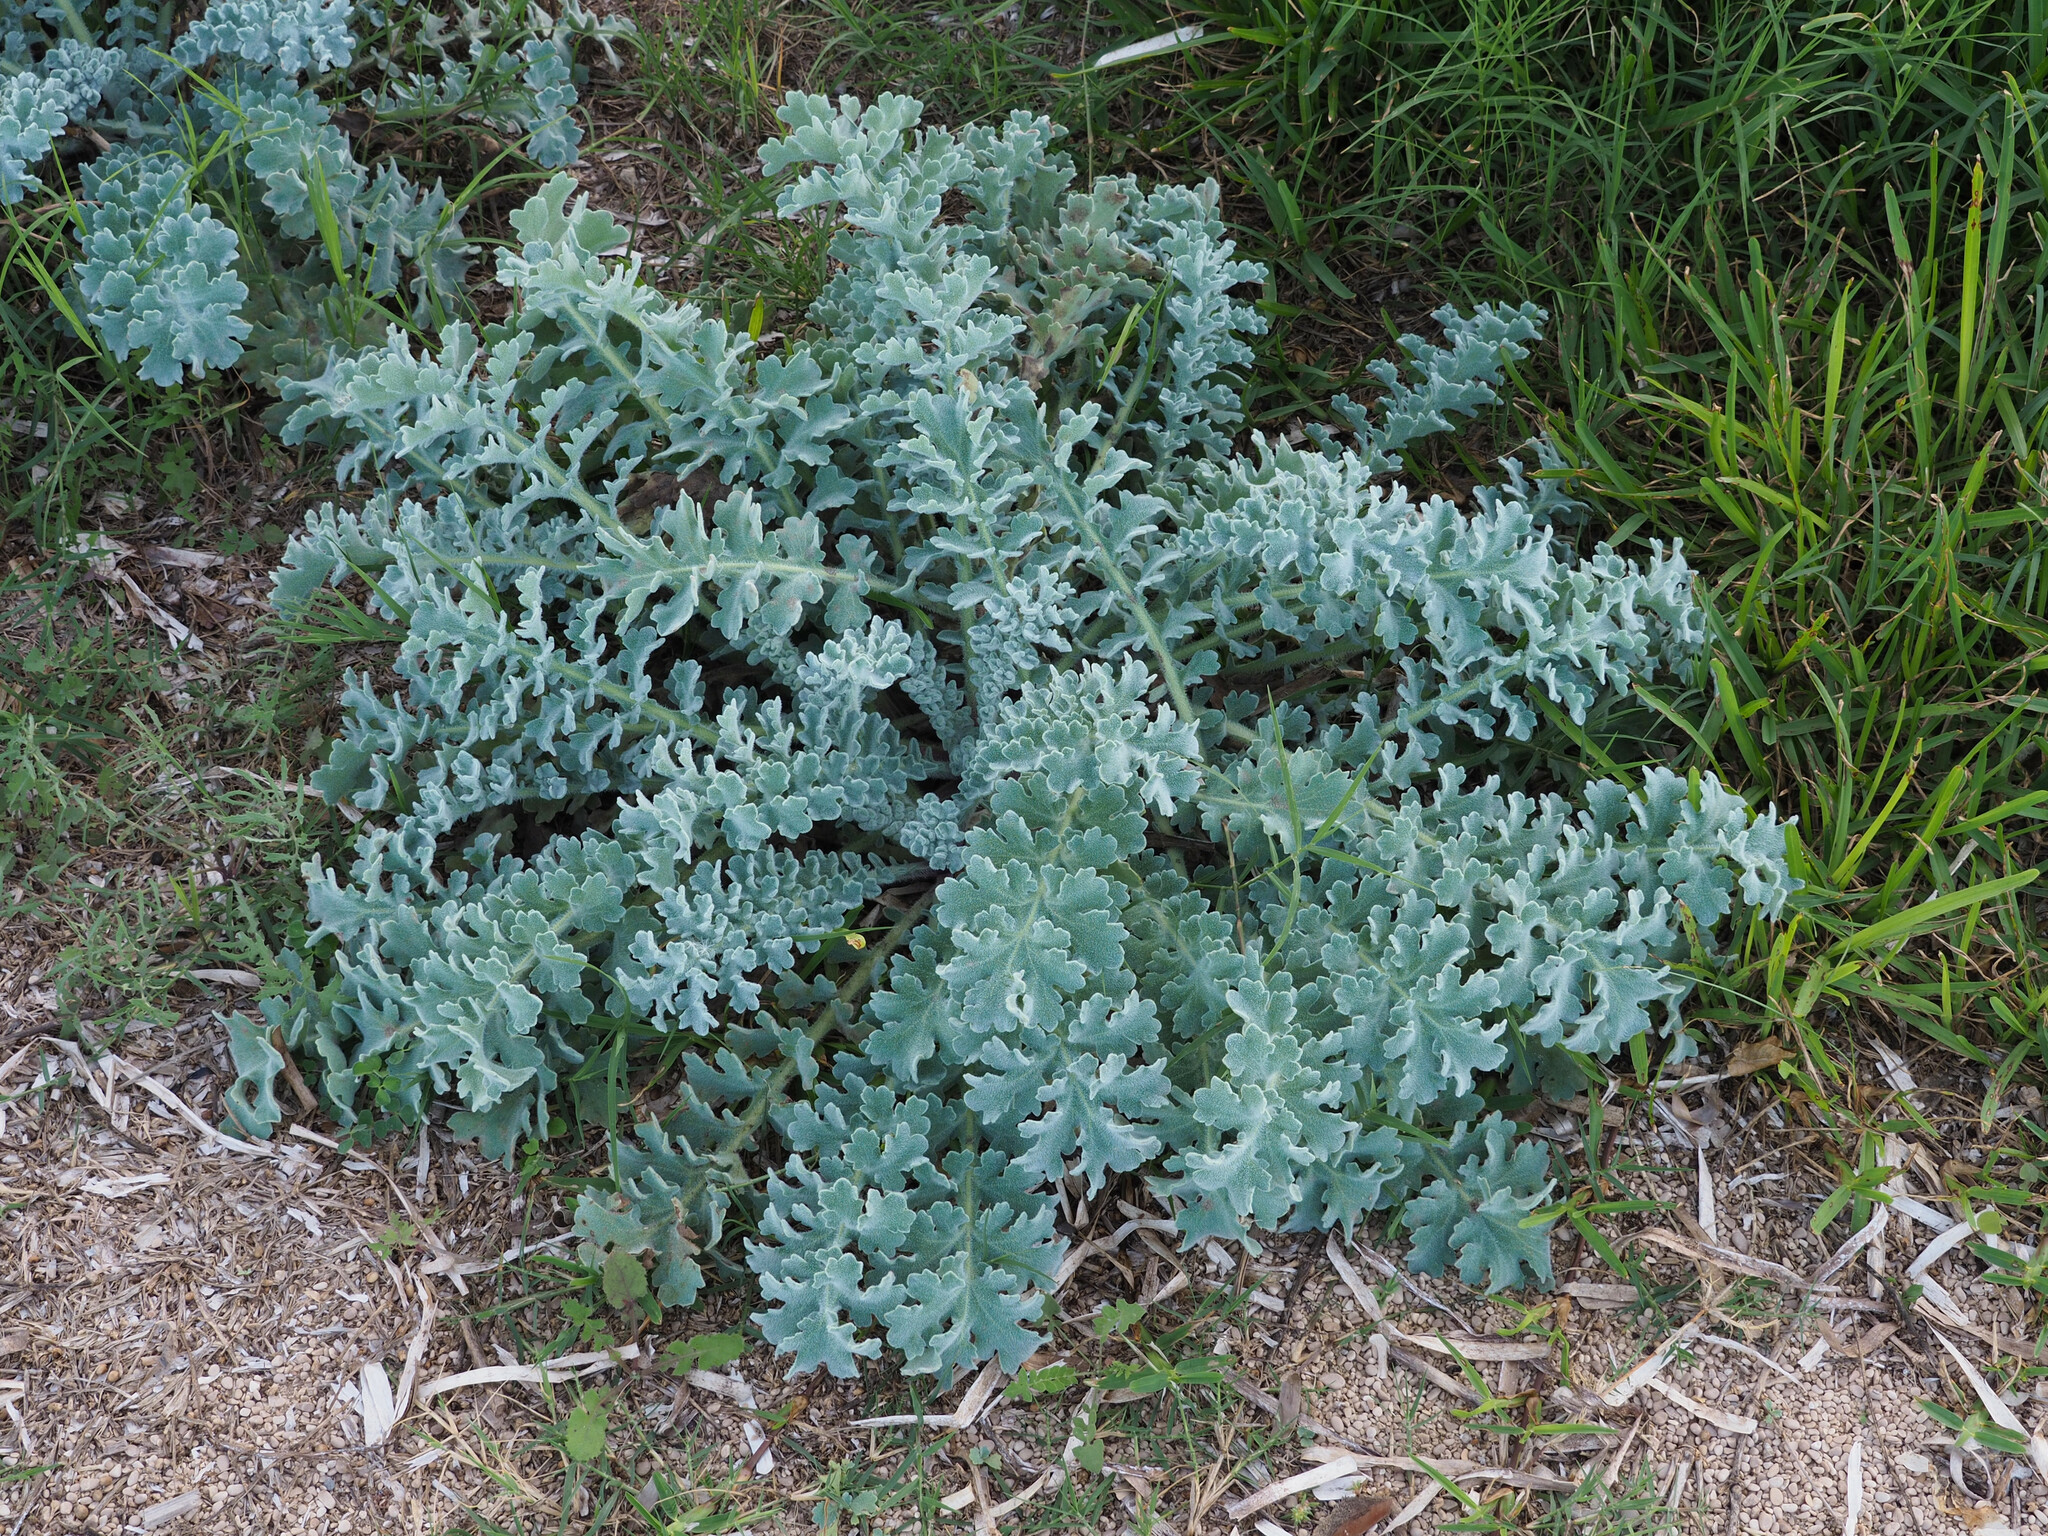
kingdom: Plantae
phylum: Tracheophyta
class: Magnoliopsida
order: Ranunculales
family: Papaveraceae
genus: Glaucium
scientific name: Glaucium flavum
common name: Yellow horned-poppy
